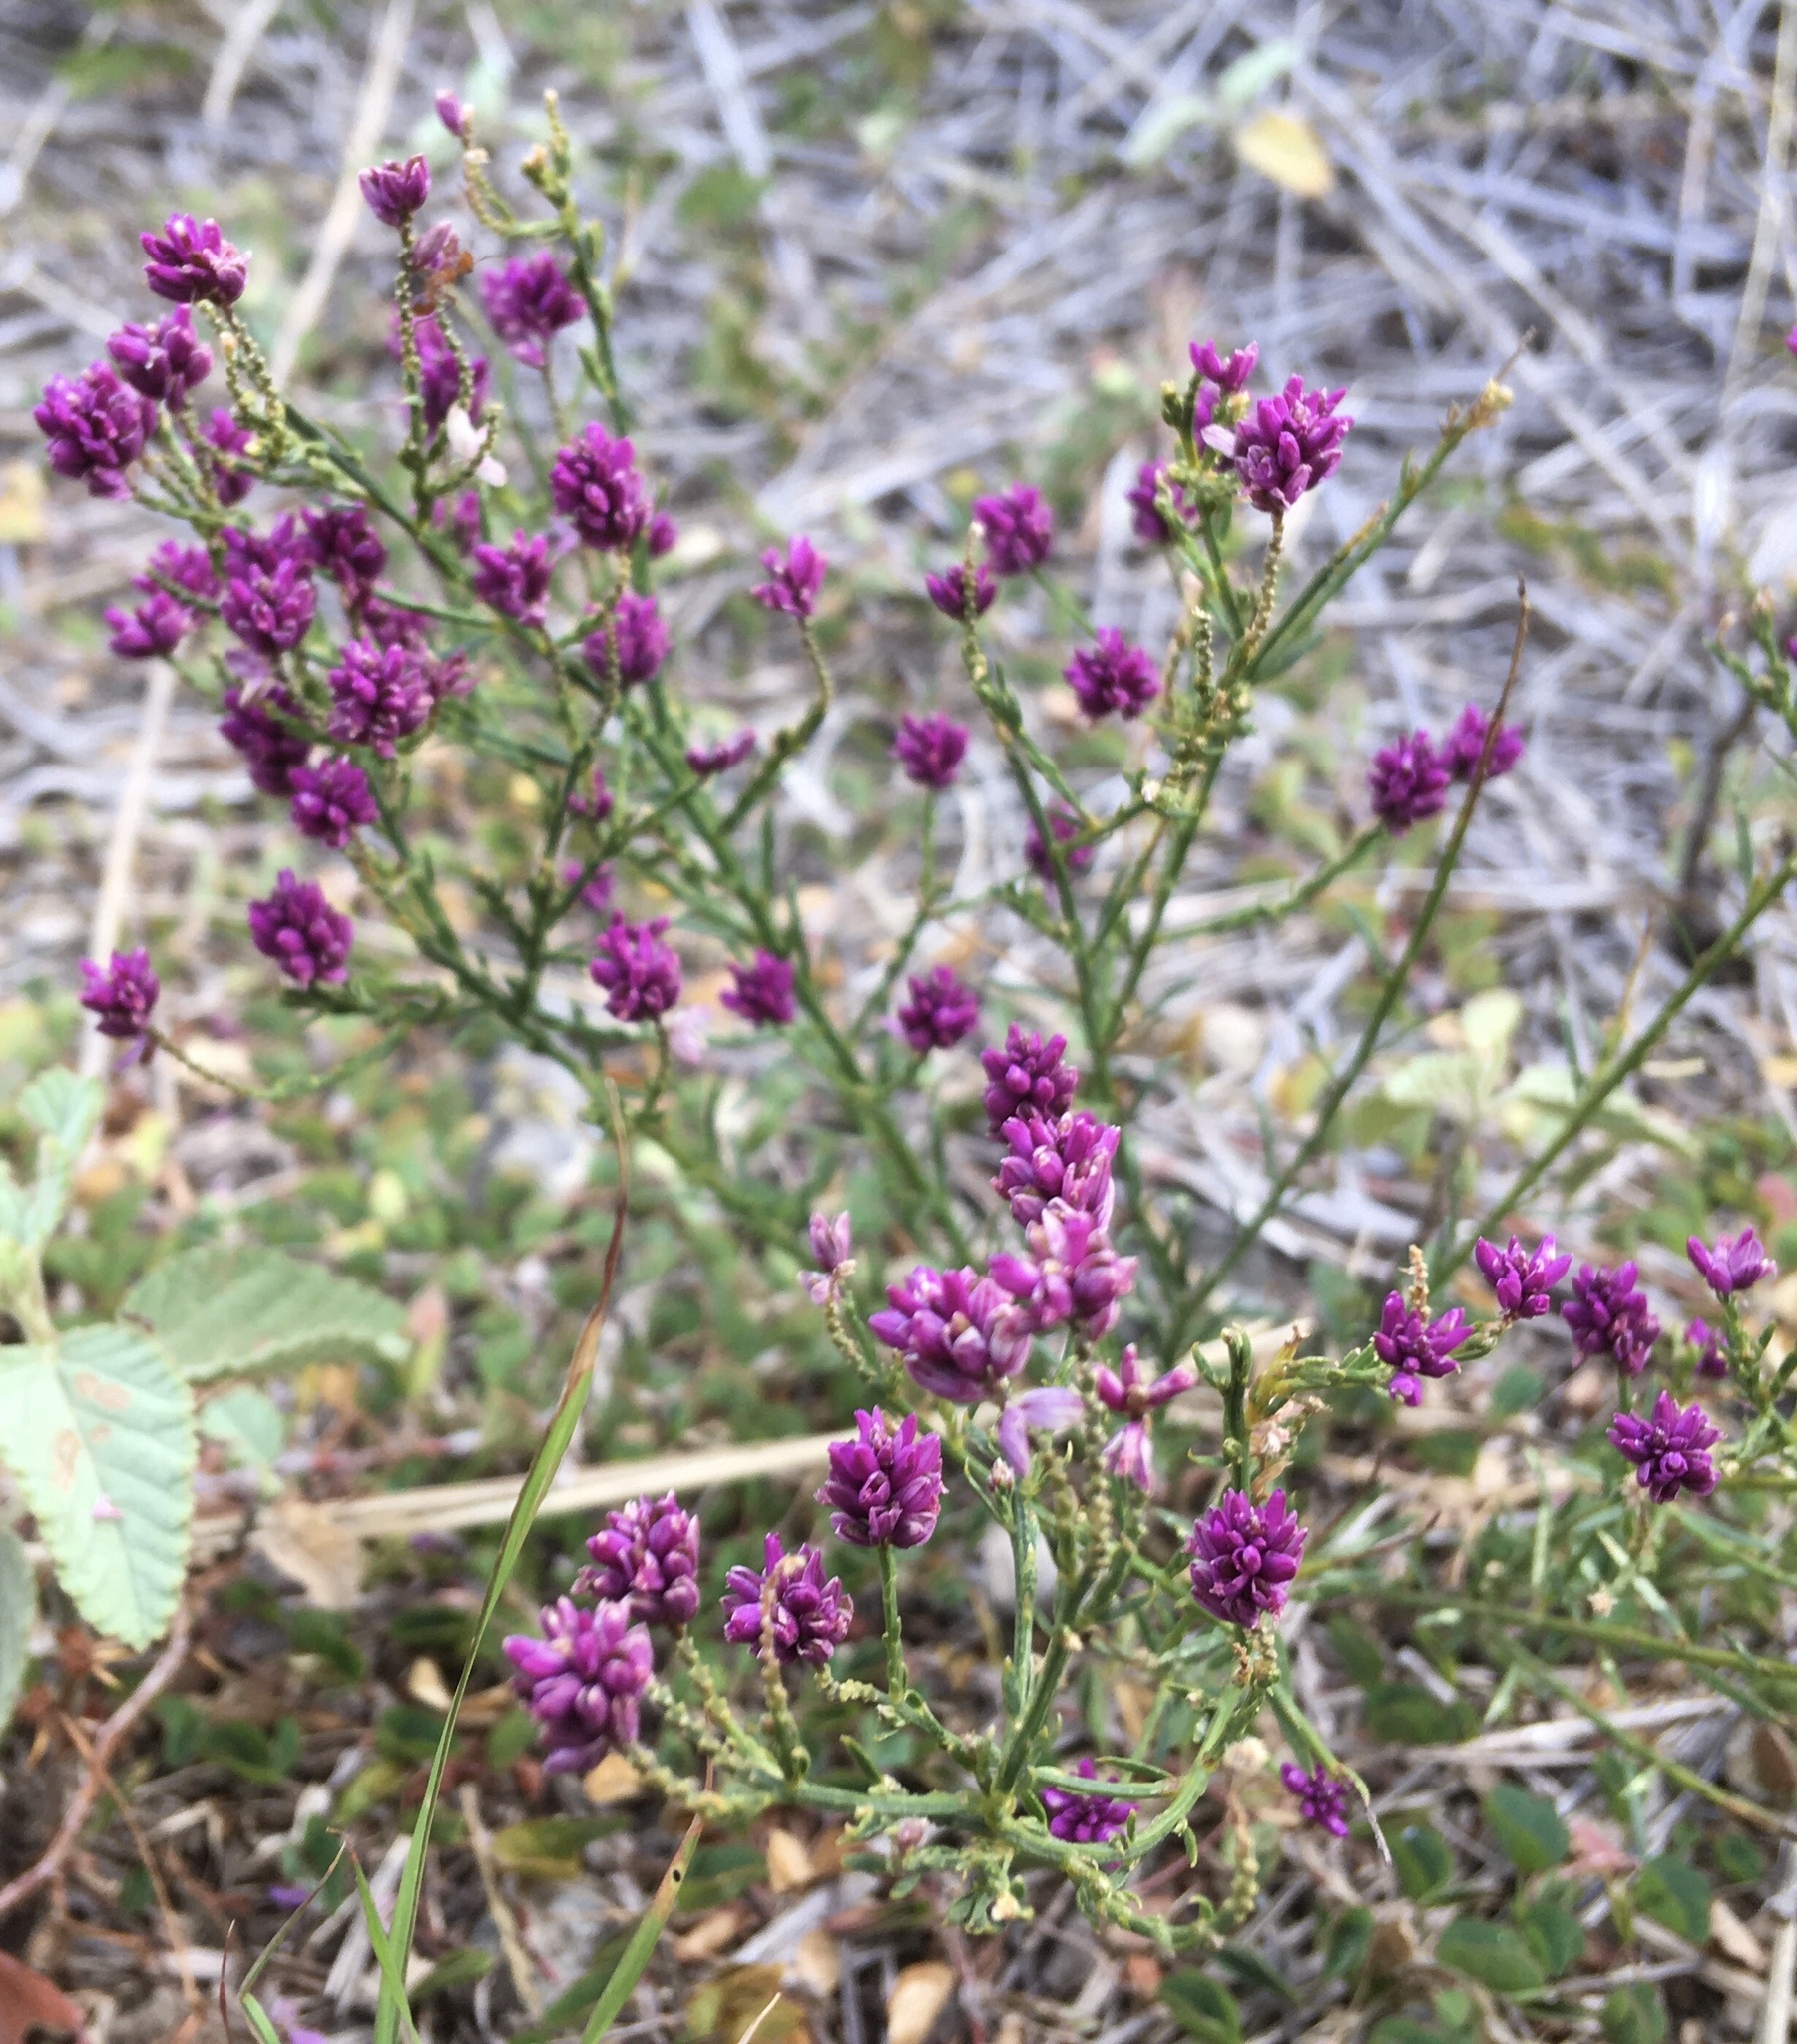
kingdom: Plantae
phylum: Tracheophyta
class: Magnoliopsida
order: Fabales
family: Polygalaceae
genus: Polygala
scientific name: Polygala longicaulis
